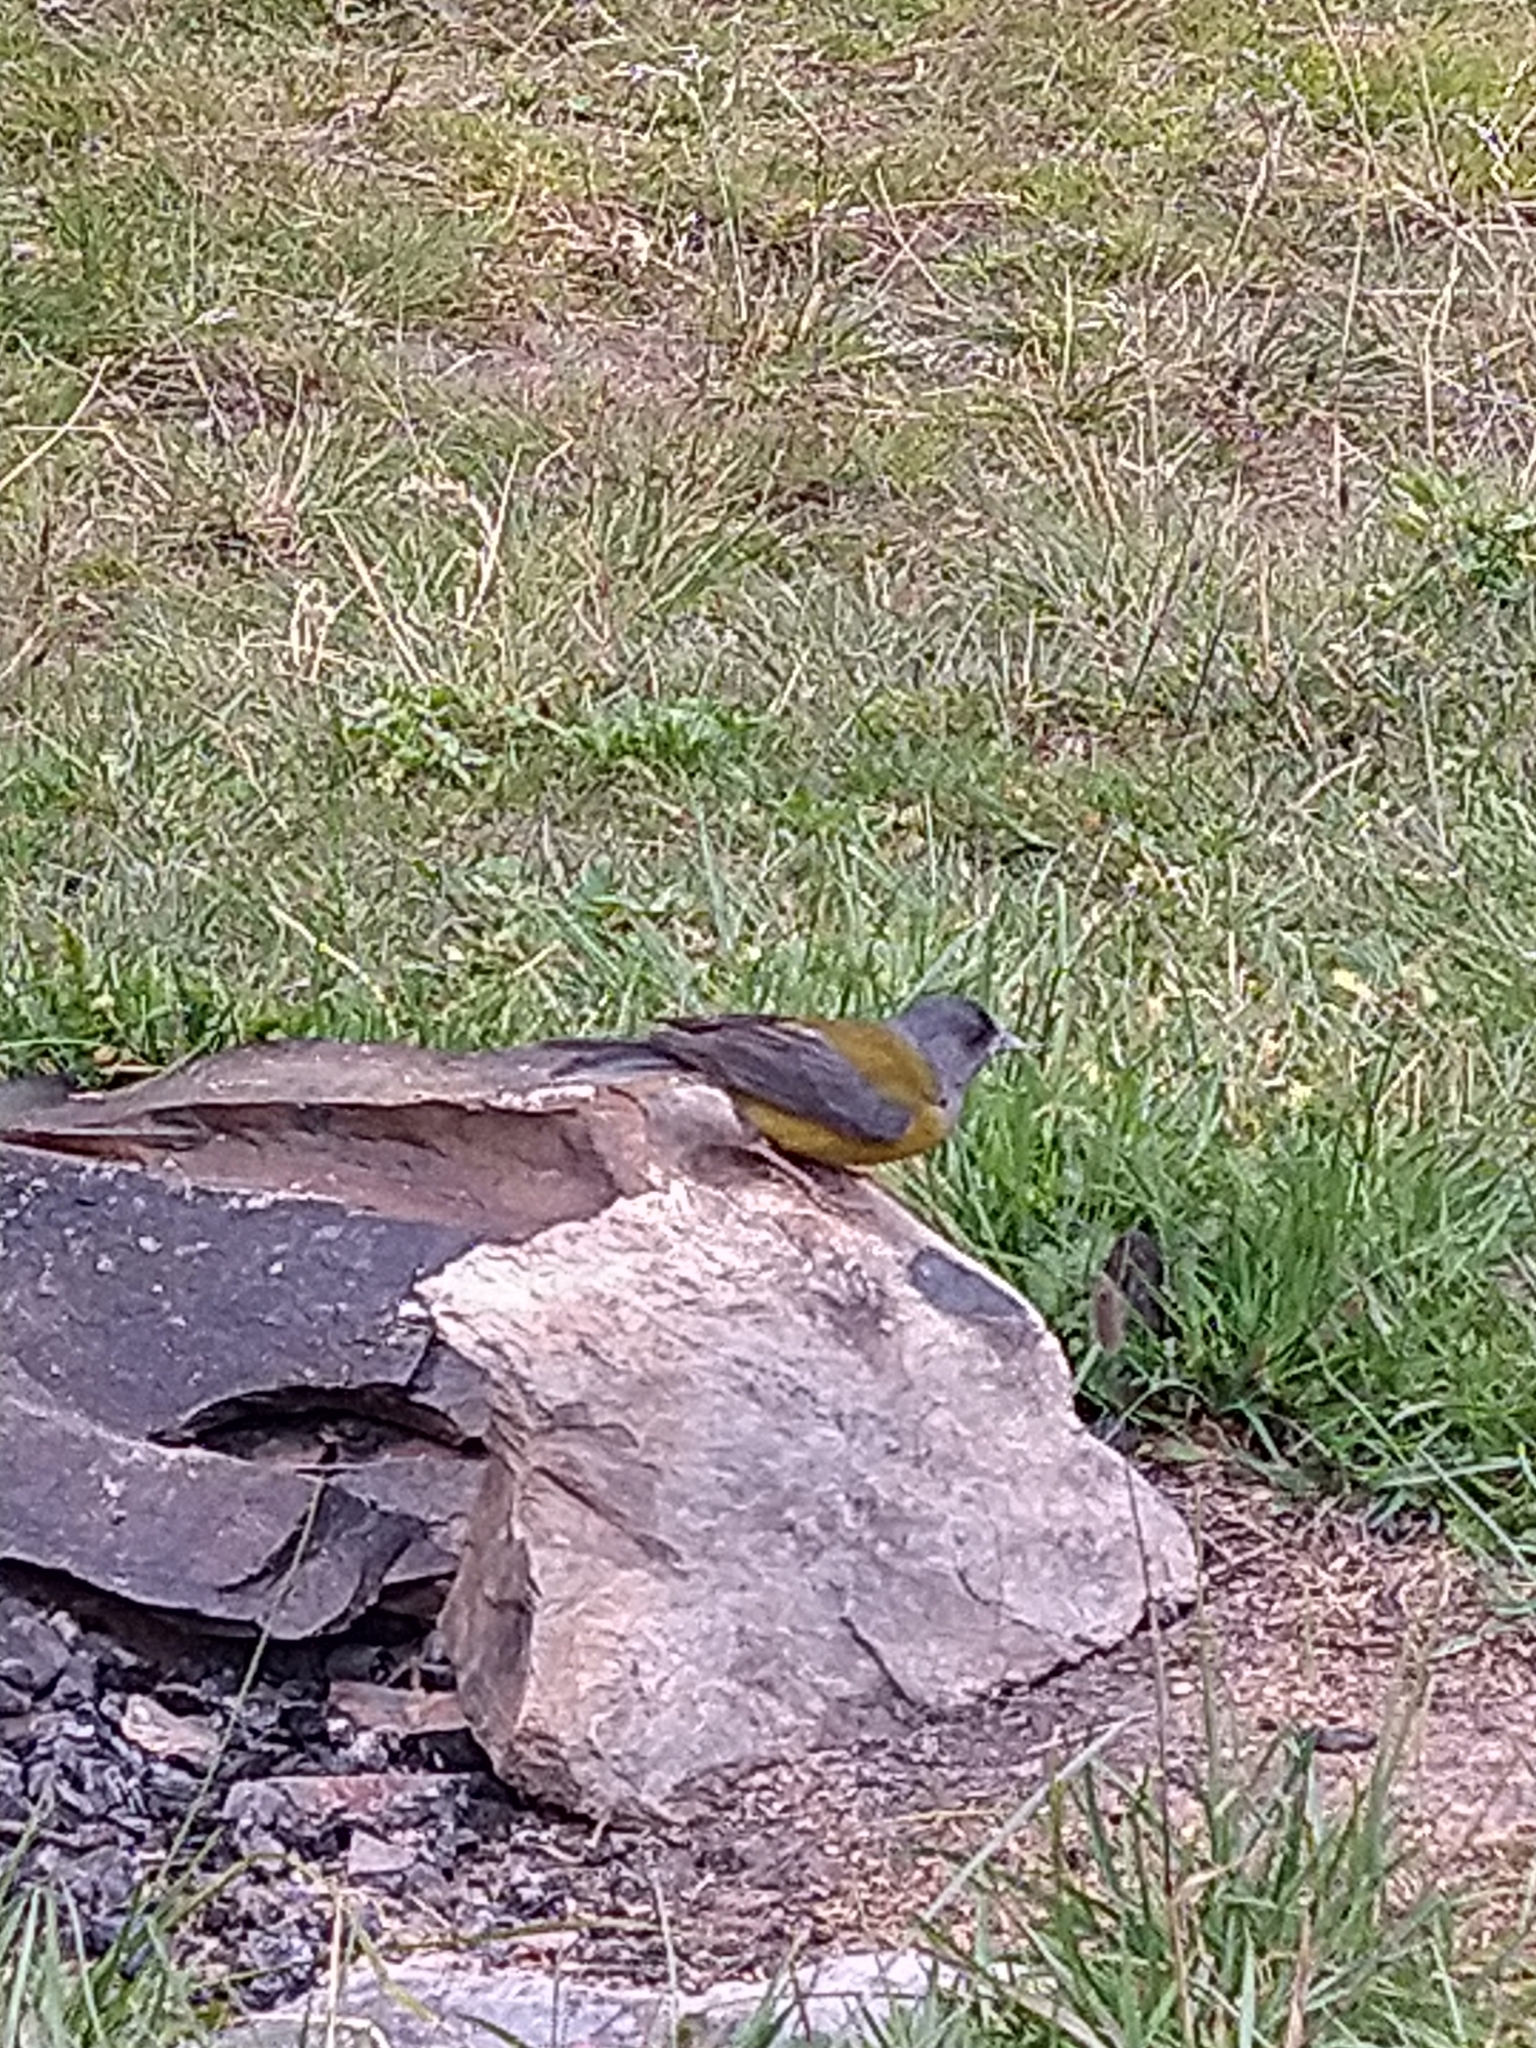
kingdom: Animalia
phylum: Chordata
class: Aves
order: Passeriformes
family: Thraupidae
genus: Phrygilus
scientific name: Phrygilus patagonicus
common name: Patagonian sierra finch
